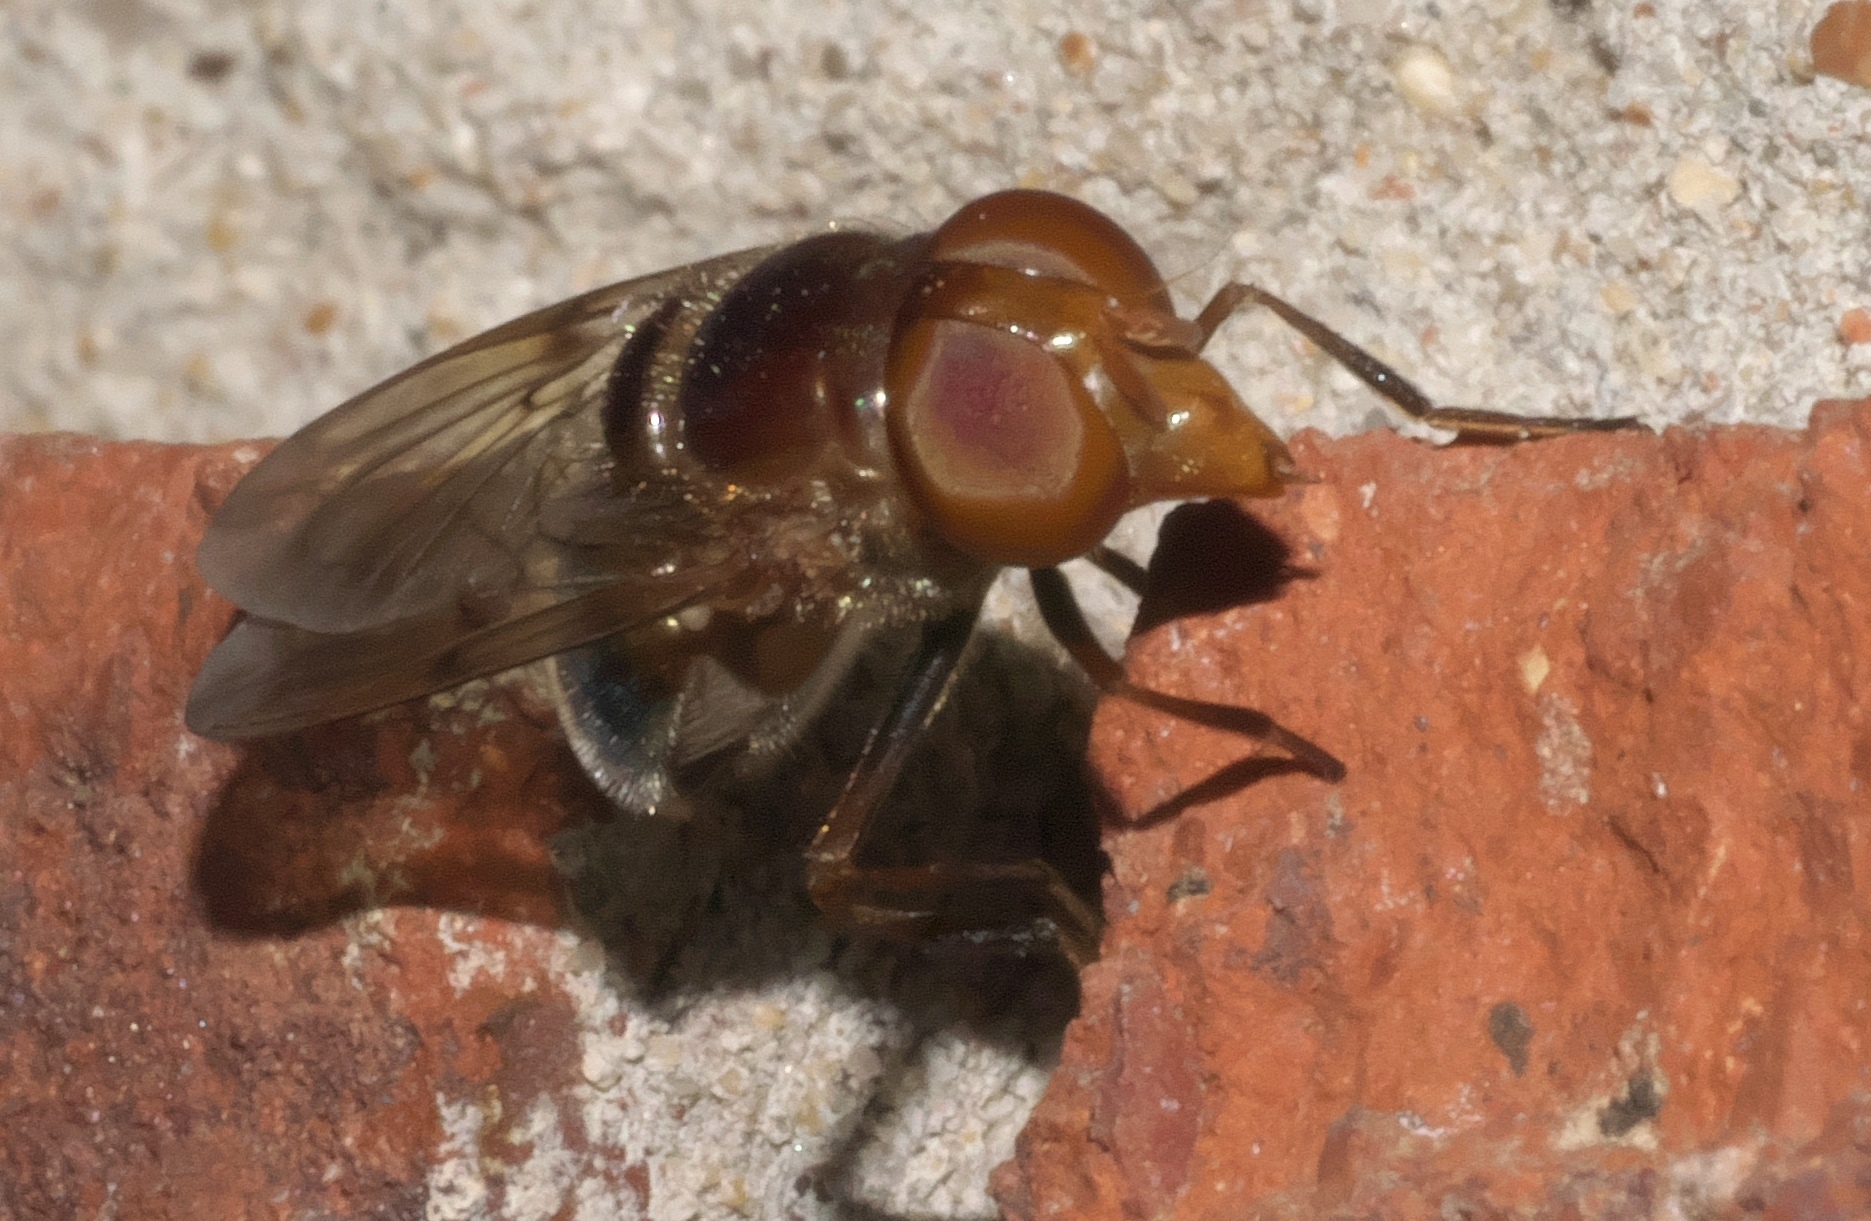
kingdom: Animalia
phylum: Arthropoda
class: Insecta
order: Diptera
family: Syrphidae
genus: Copestylum
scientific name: Copestylum vesicularium
